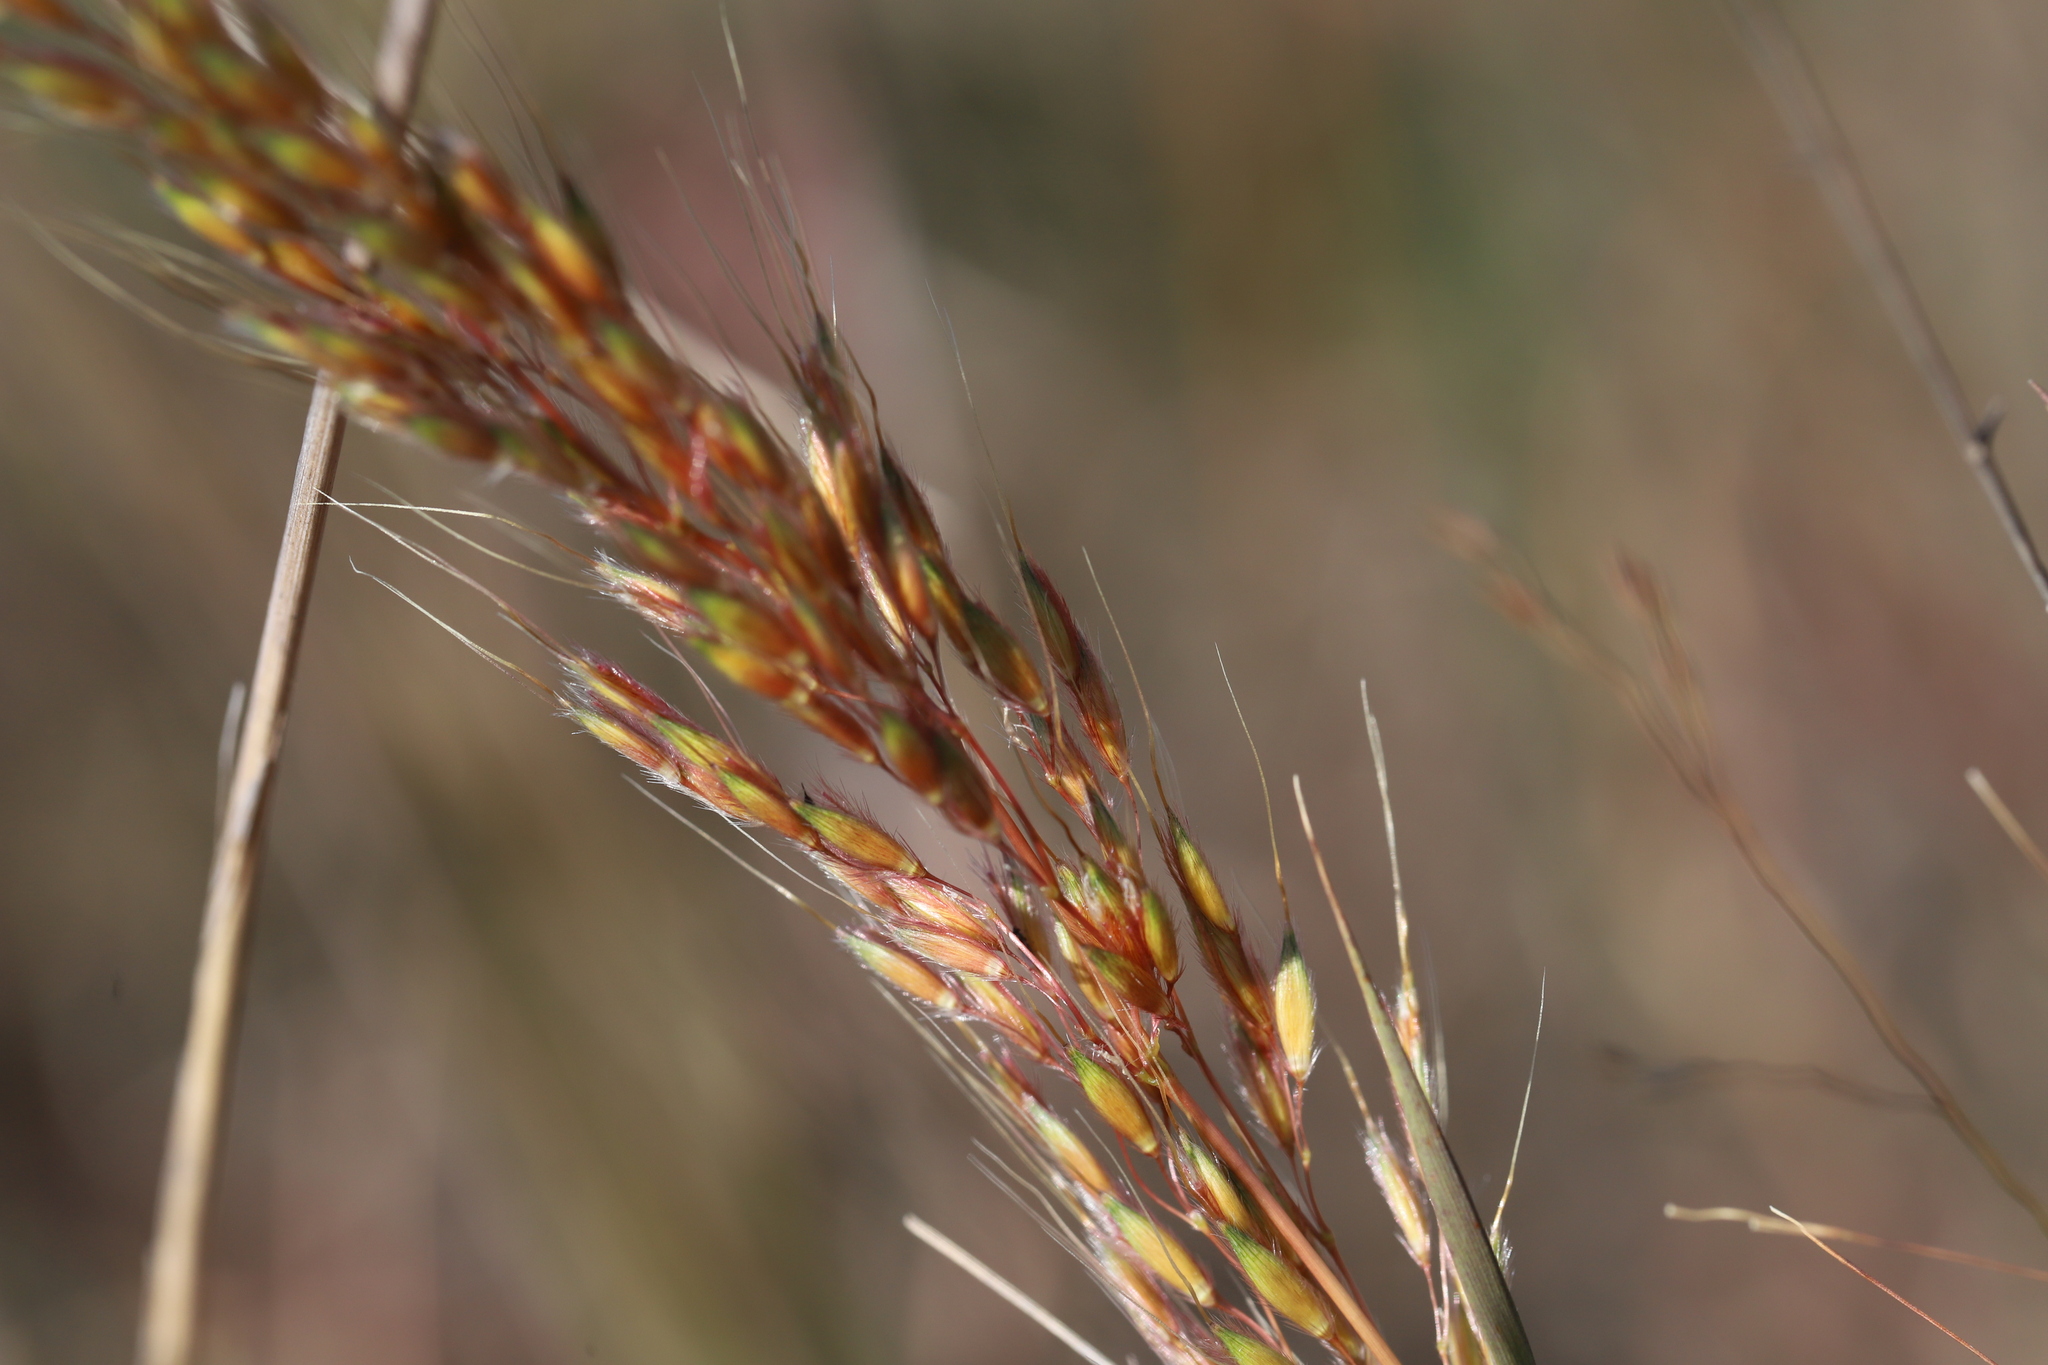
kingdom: Plantae
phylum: Tracheophyta
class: Liliopsida
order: Poales
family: Poaceae
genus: Sorghastrum
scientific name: Sorghastrum nutans
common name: Indian grass
